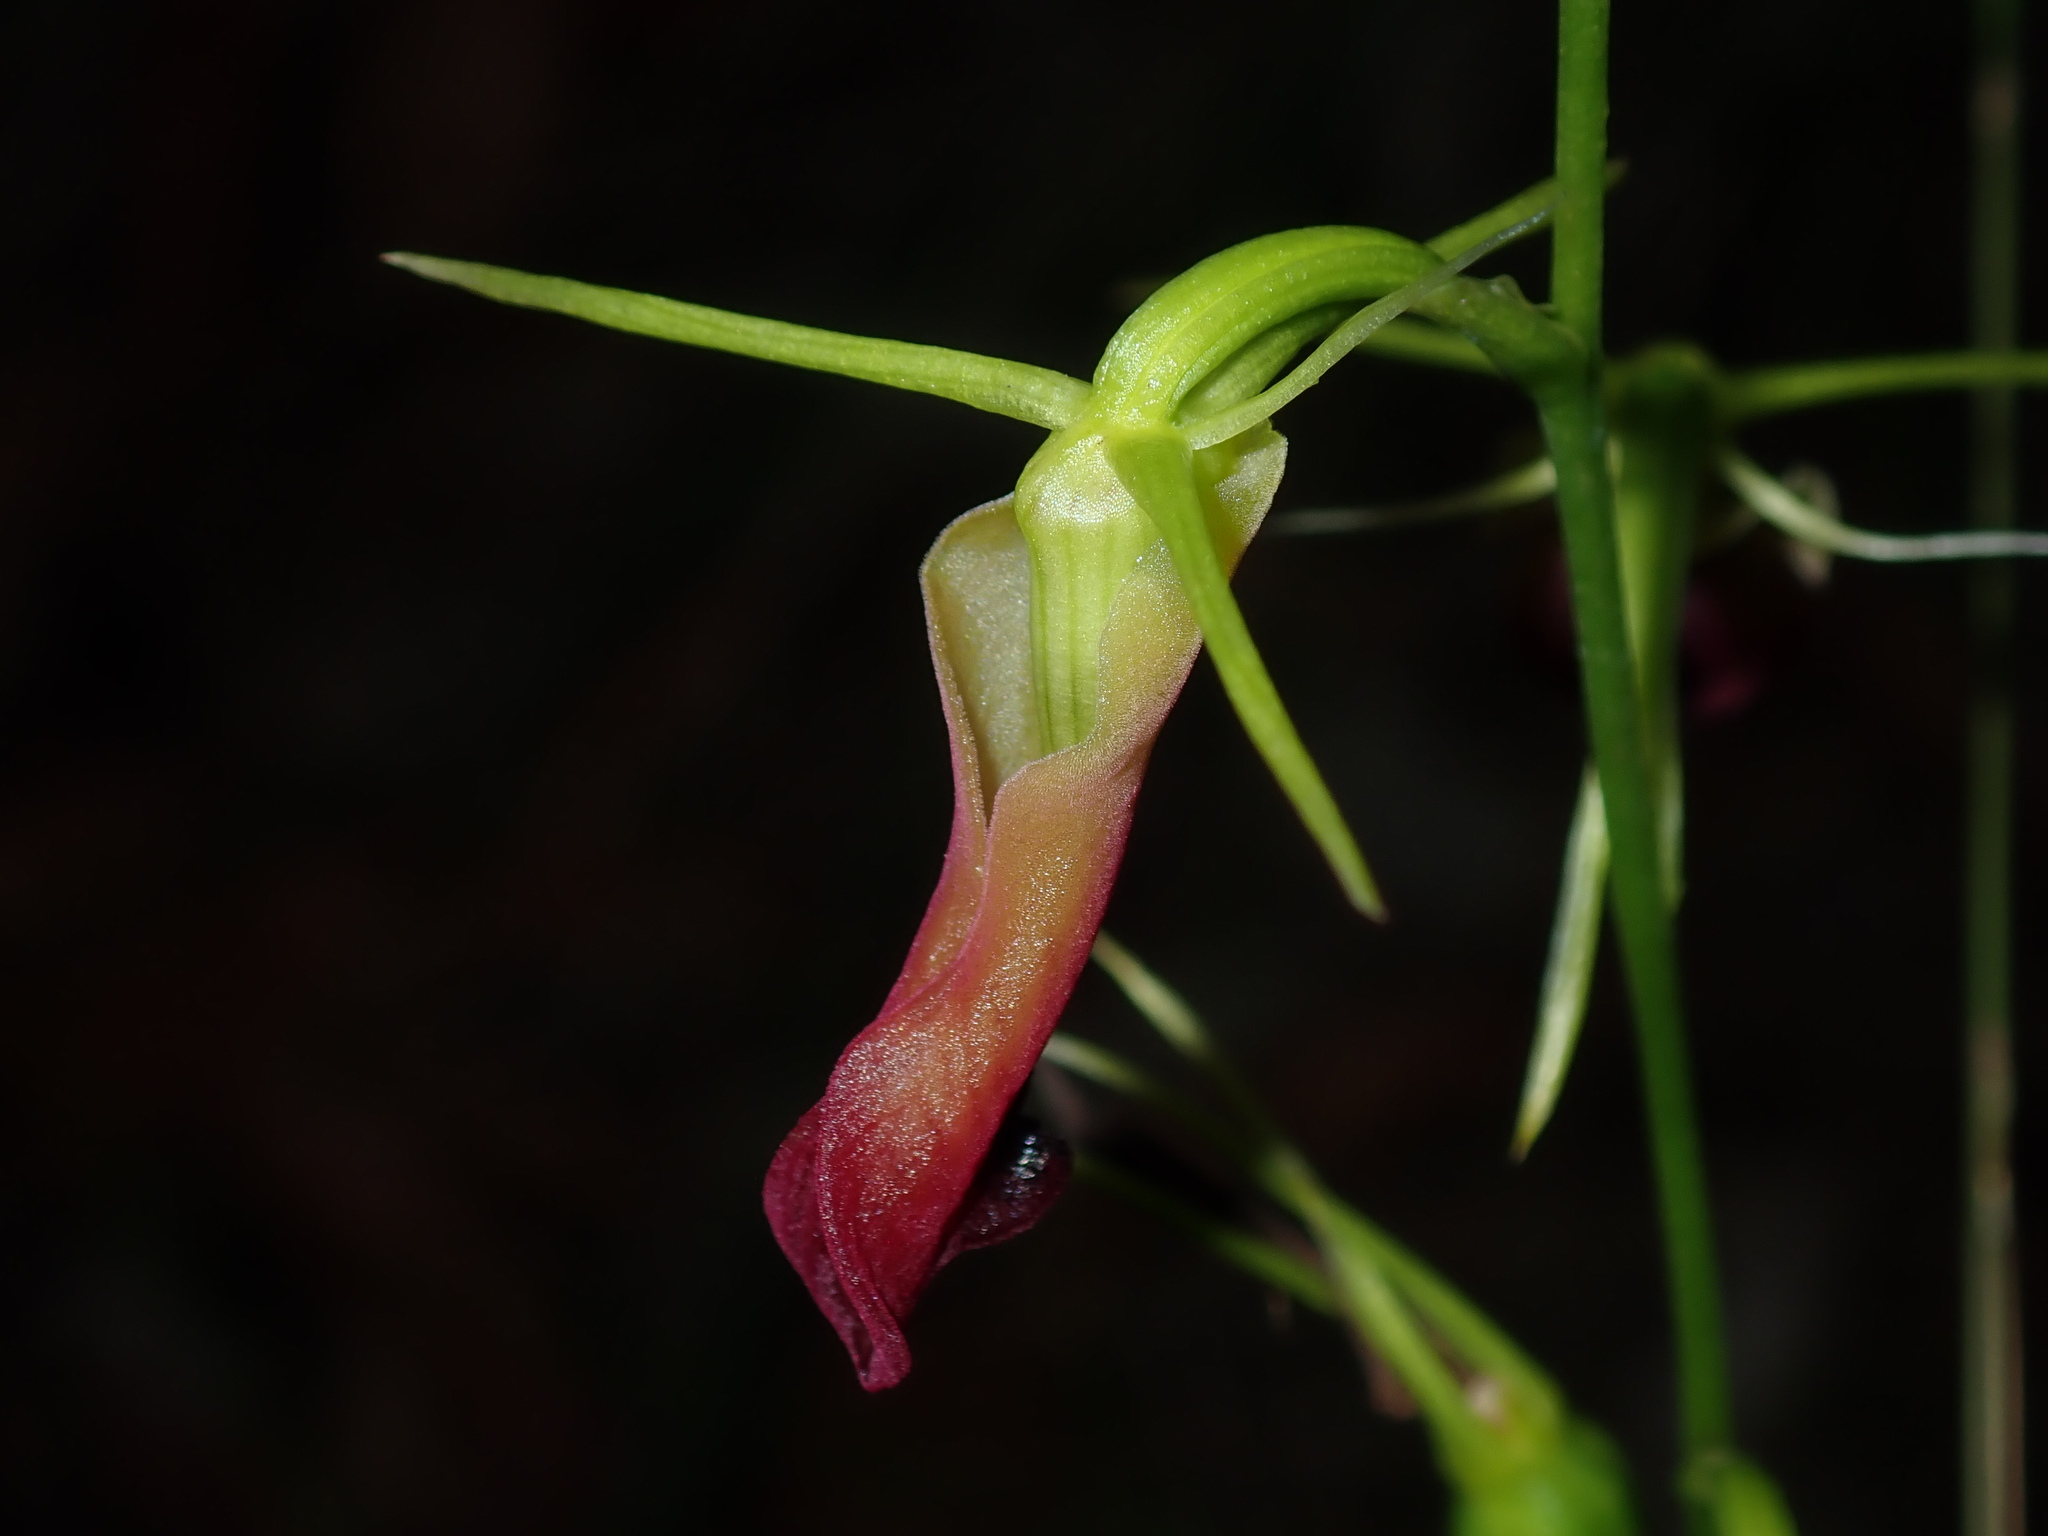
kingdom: Plantae
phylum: Tracheophyta
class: Liliopsida
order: Asparagales
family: Orchidaceae
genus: Cryptostylis
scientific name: Cryptostylis subulata
